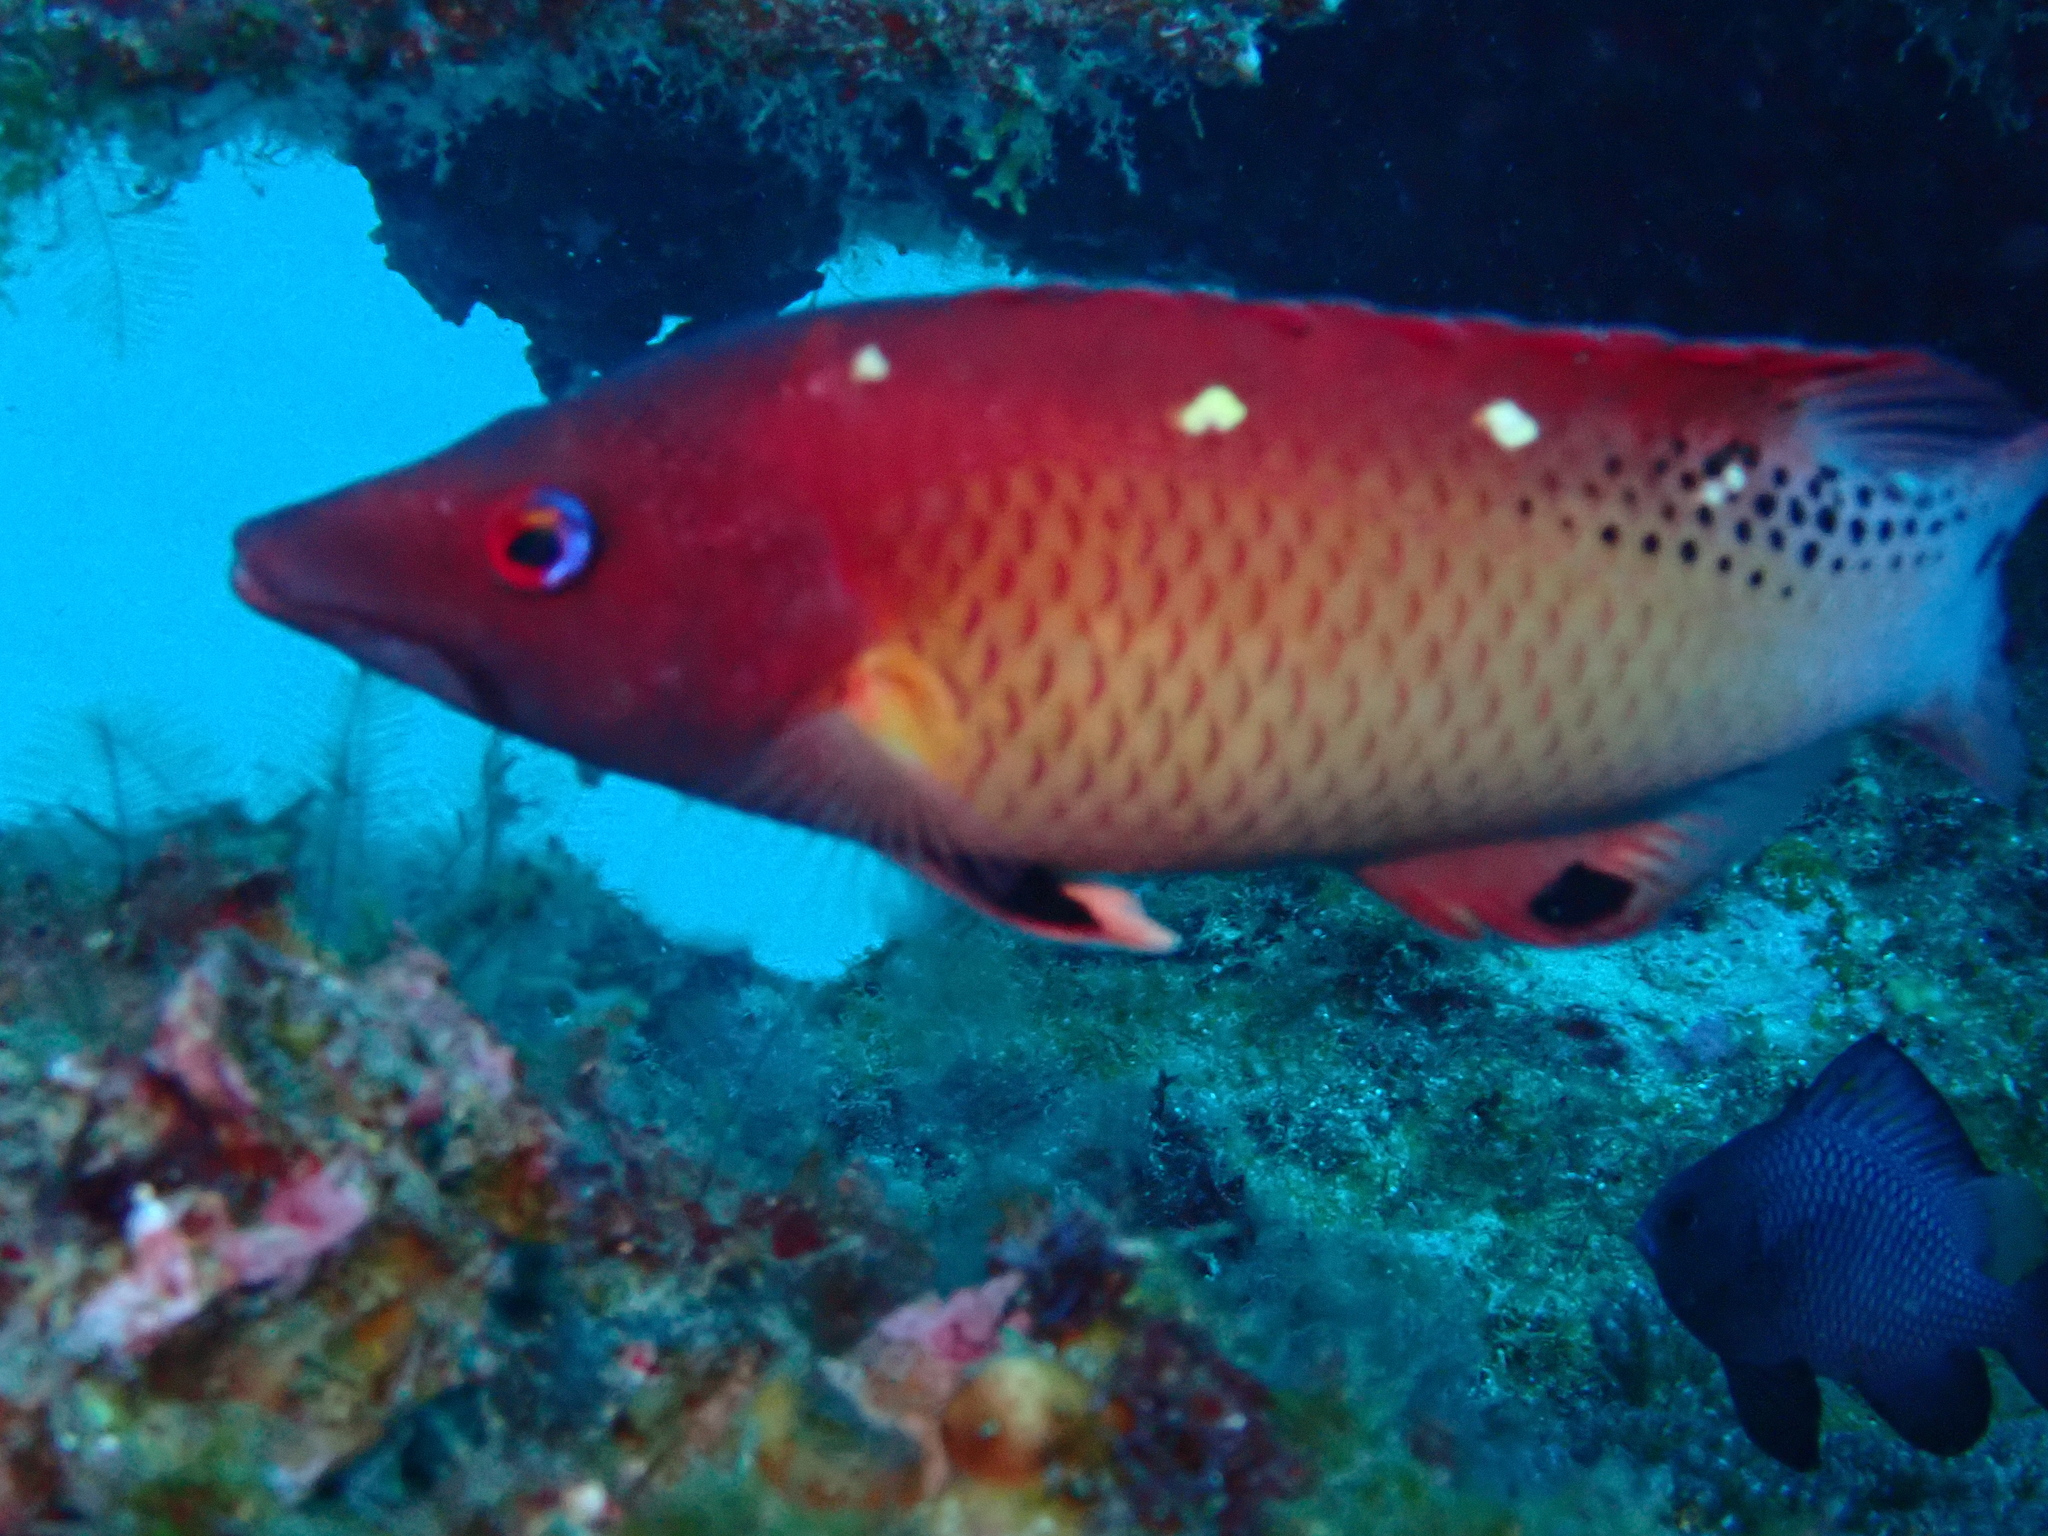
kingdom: Animalia
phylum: Chordata
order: Perciformes
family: Labridae
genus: Bodianus
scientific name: Bodianus dictynna
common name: Diana's hogfish
